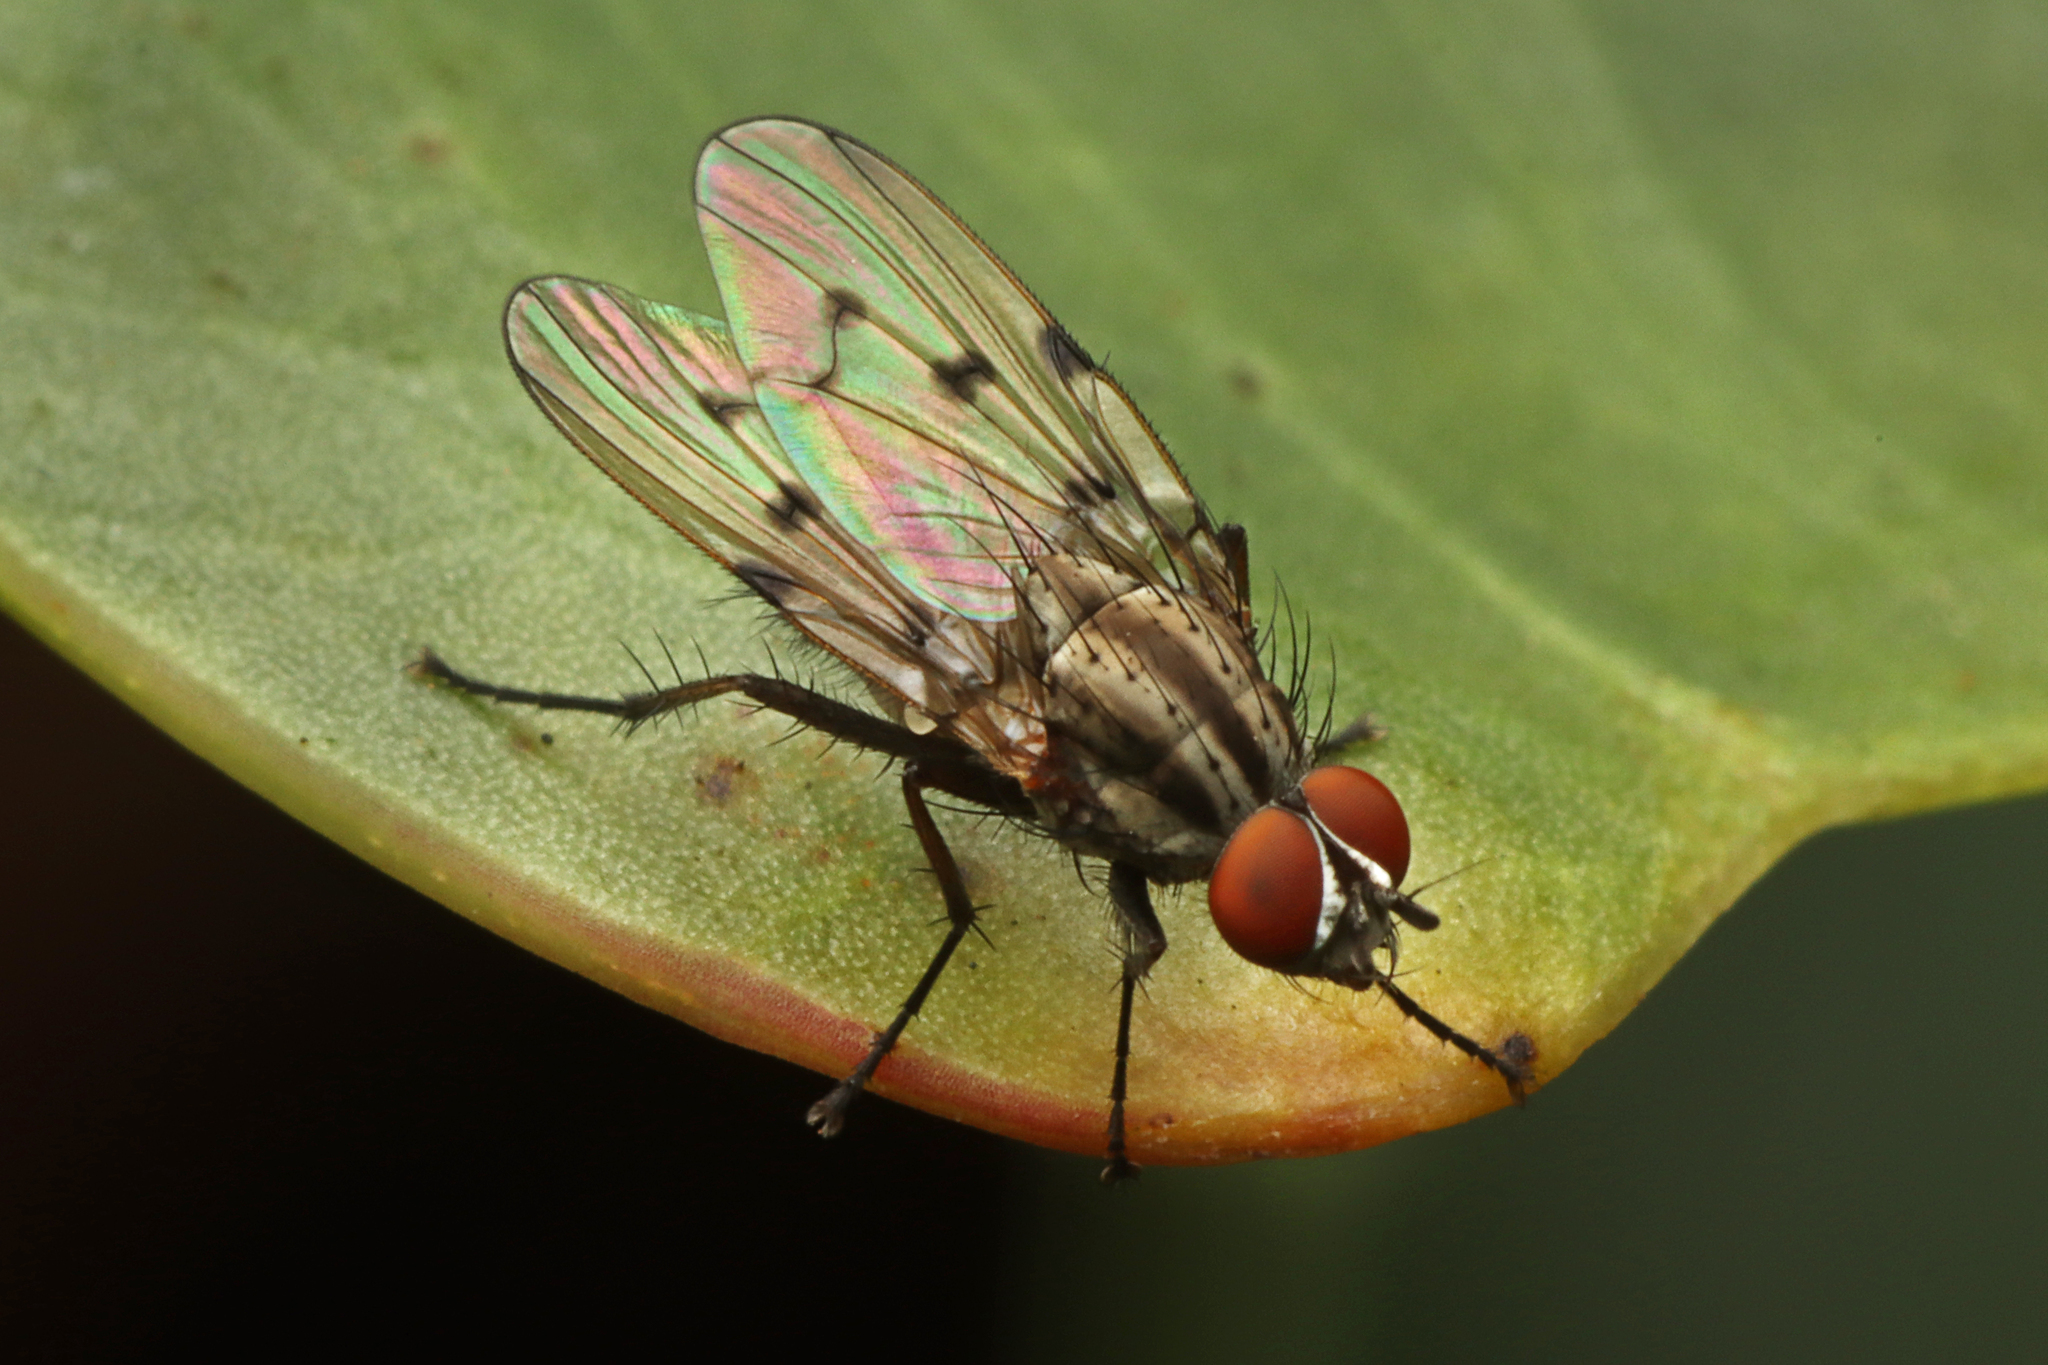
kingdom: Animalia
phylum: Arthropoda
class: Insecta
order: Diptera
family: Anthomyiidae
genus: Anthomyia
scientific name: Anthomyia punctipennis
